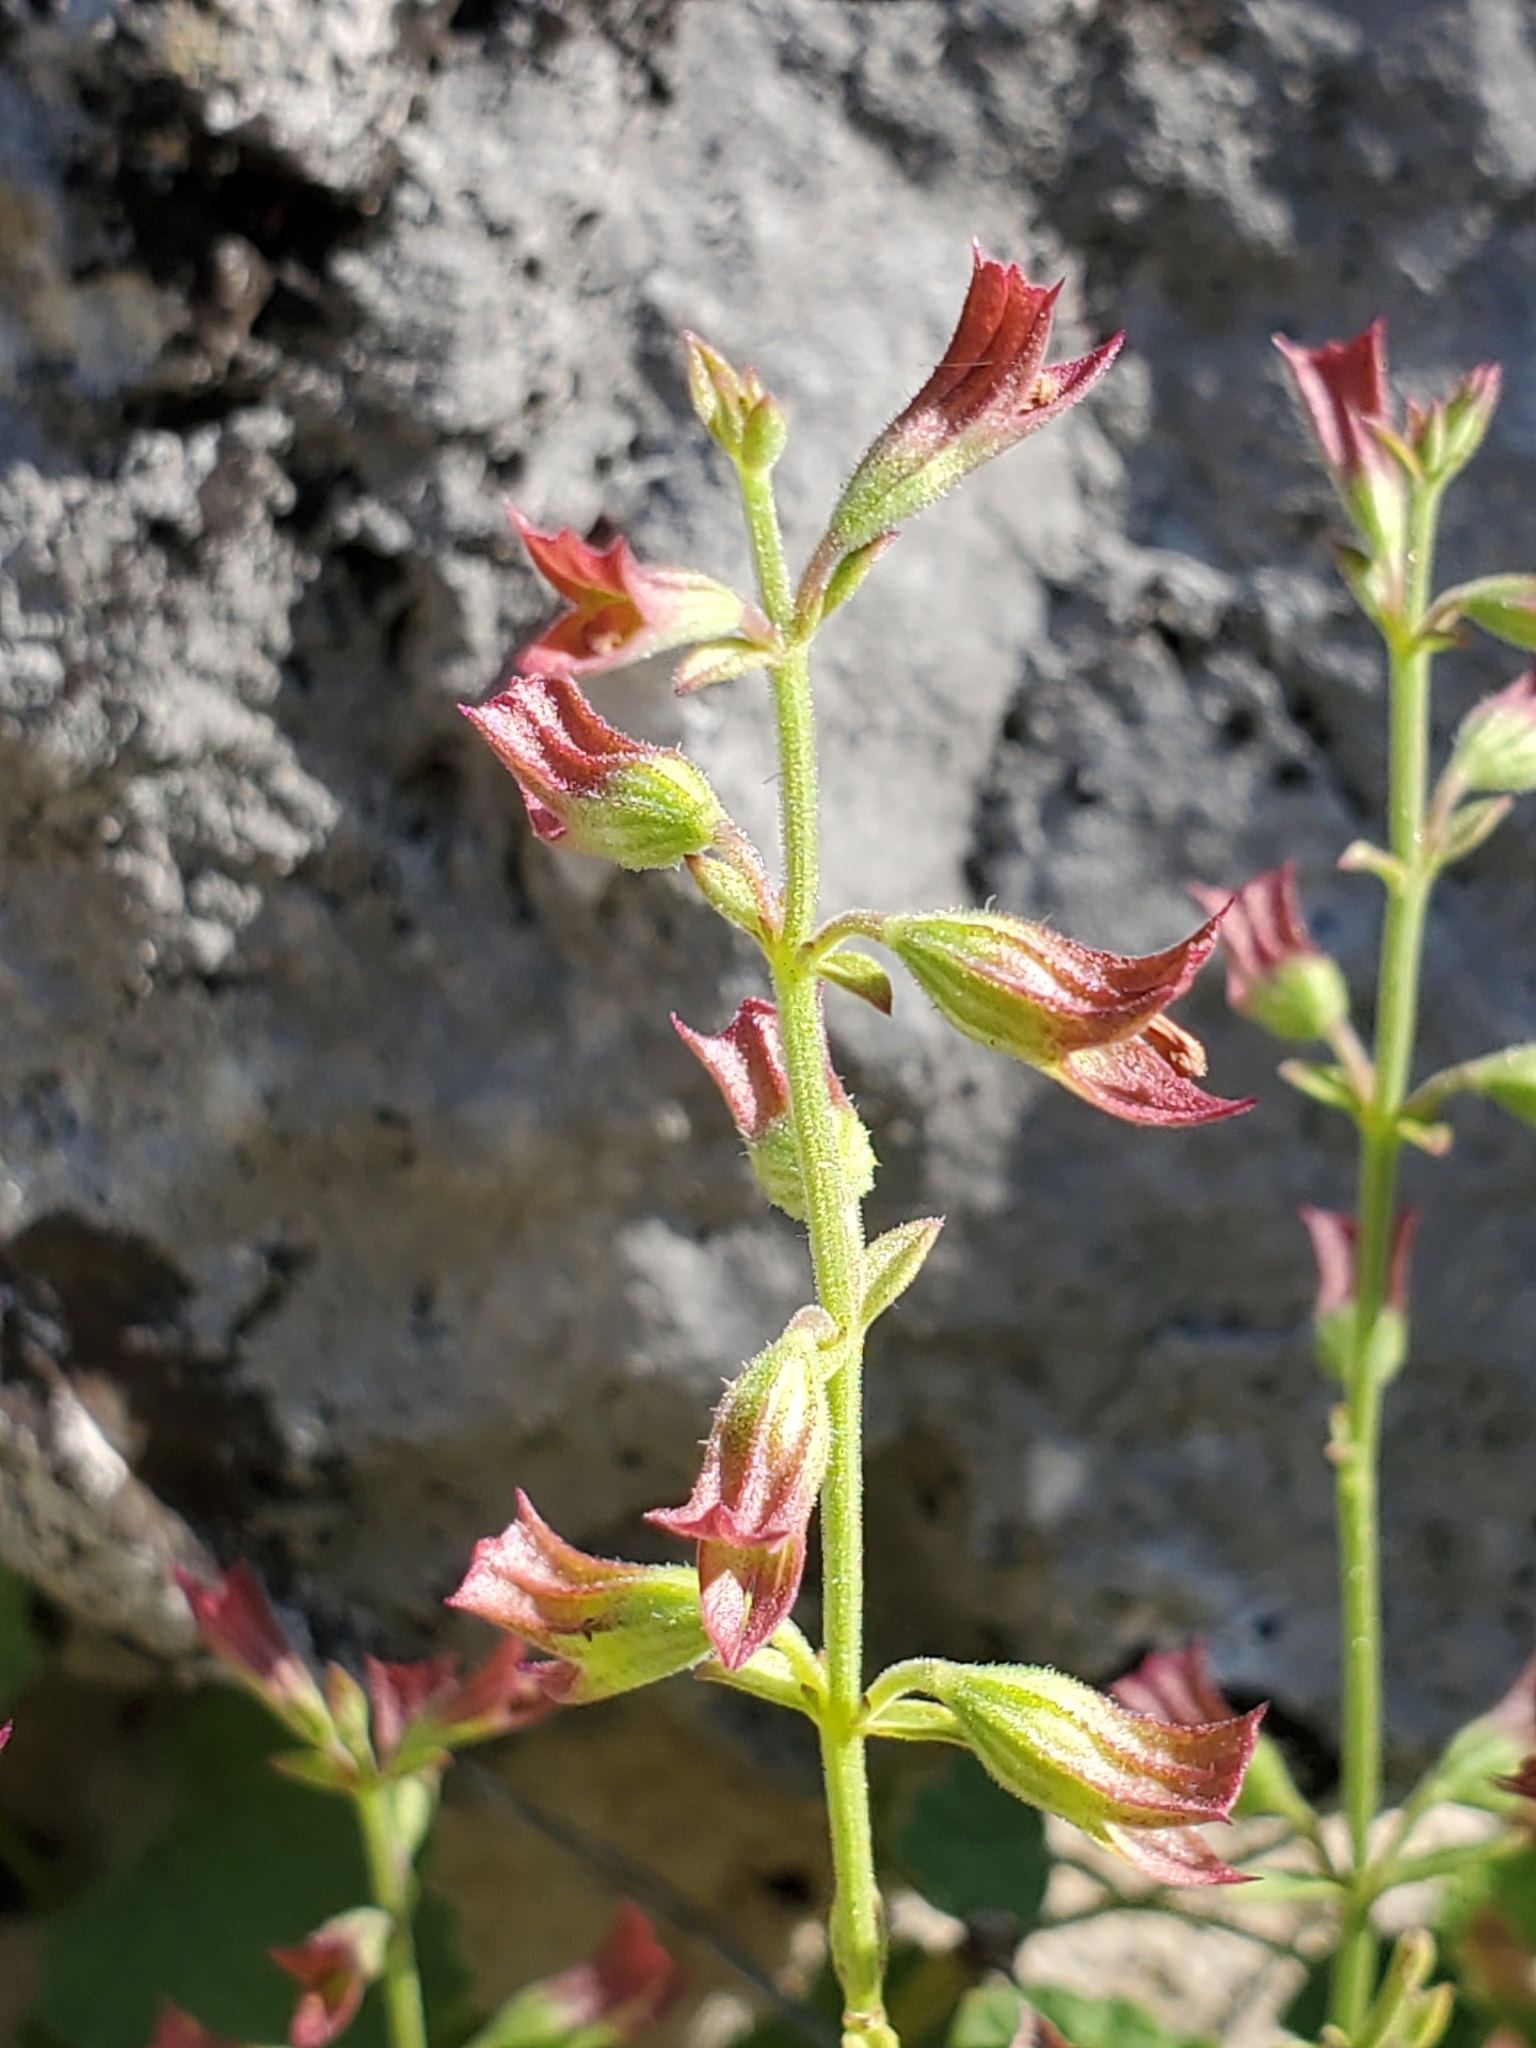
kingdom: Plantae
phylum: Tracheophyta
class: Magnoliopsida
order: Lamiales
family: Lamiaceae
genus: Salvia
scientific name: Salvia roemeriana
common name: Cedar sage
